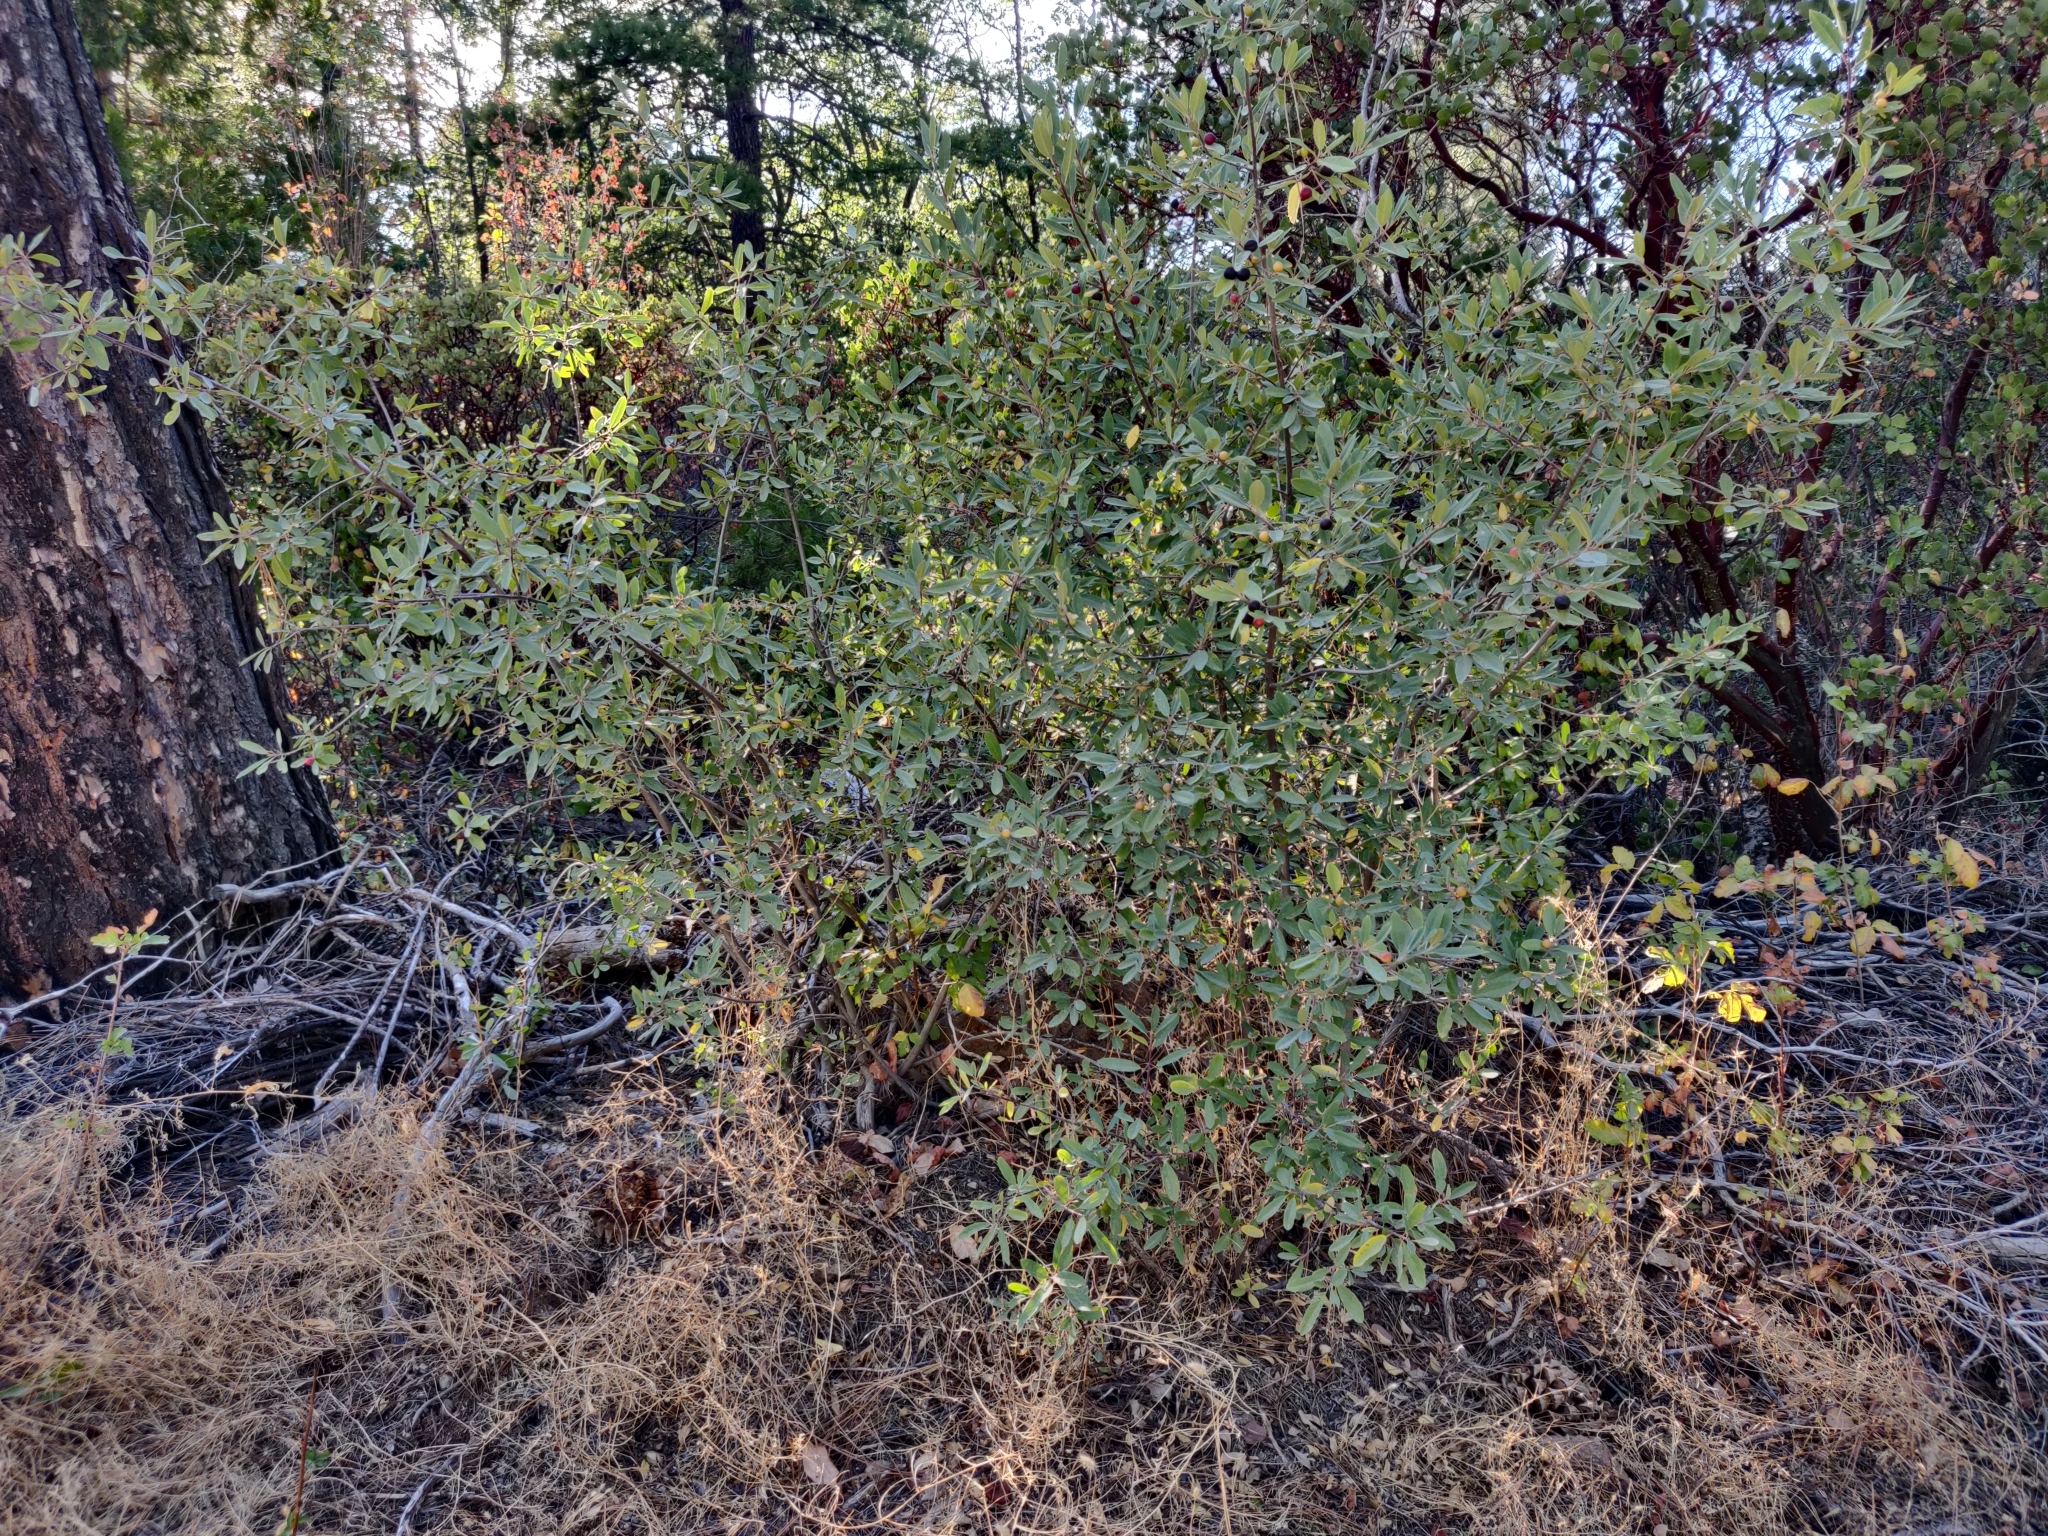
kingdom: Plantae
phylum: Tracheophyta
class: Magnoliopsida
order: Rosales
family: Rhamnaceae
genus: Frangula
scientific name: Frangula californica
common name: California buckthorn
